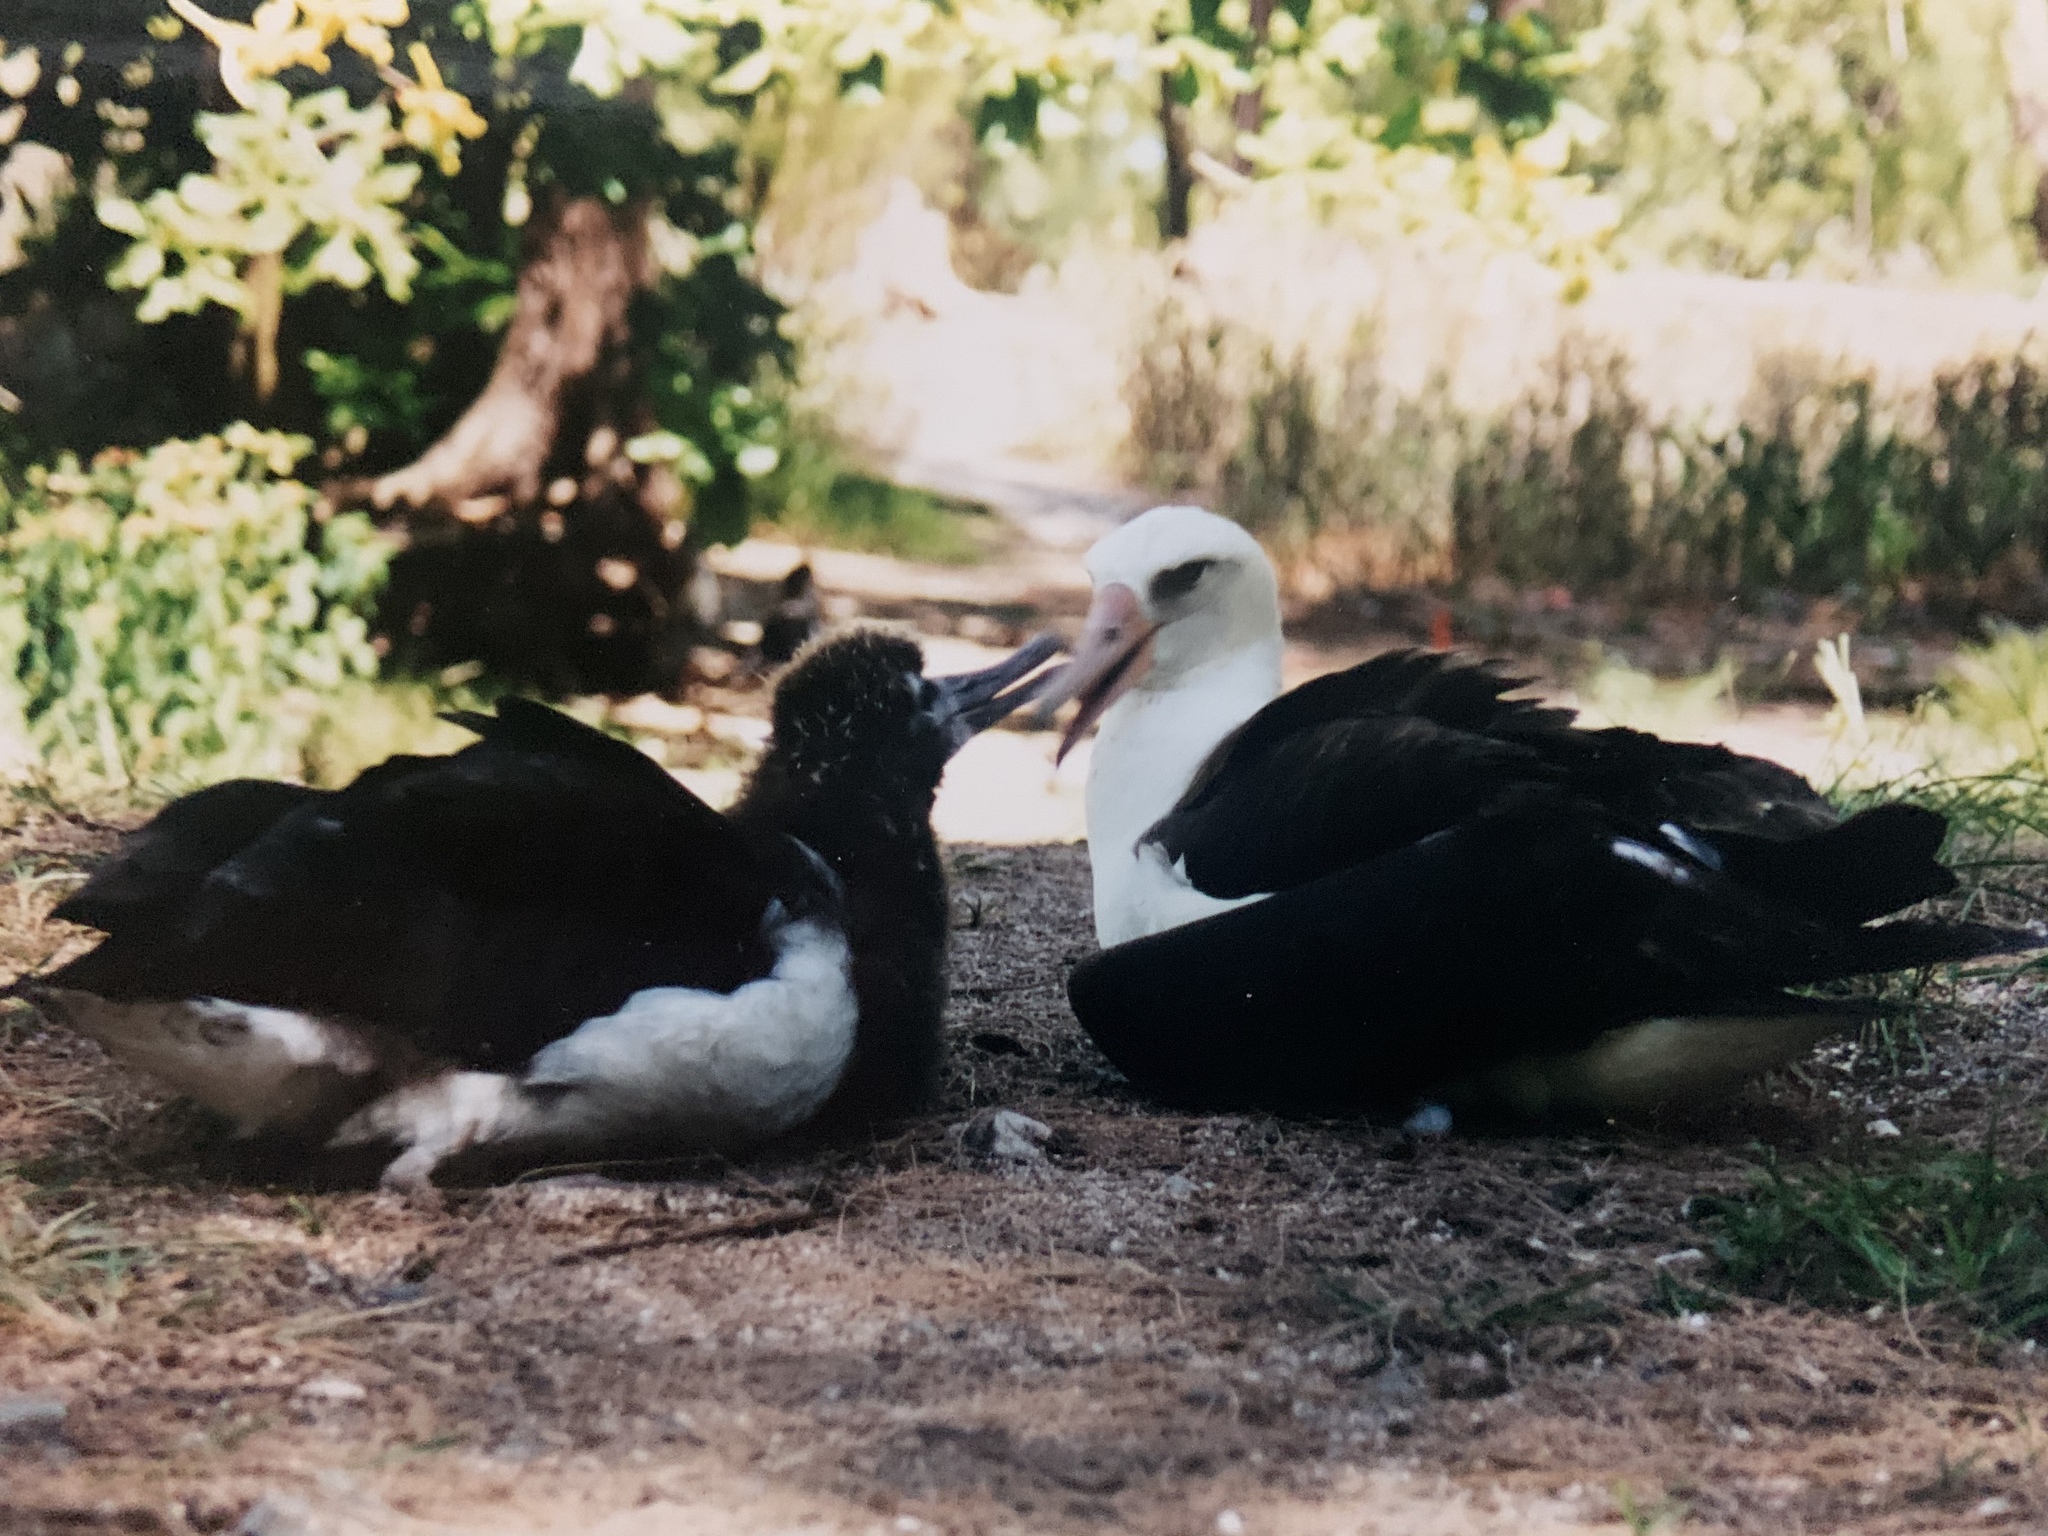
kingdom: Animalia
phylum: Chordata
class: Aves
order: Procellariiformes
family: Diomedeidae
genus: Phoebastria
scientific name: Phoebastria immutabilis
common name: Laysan albatross
